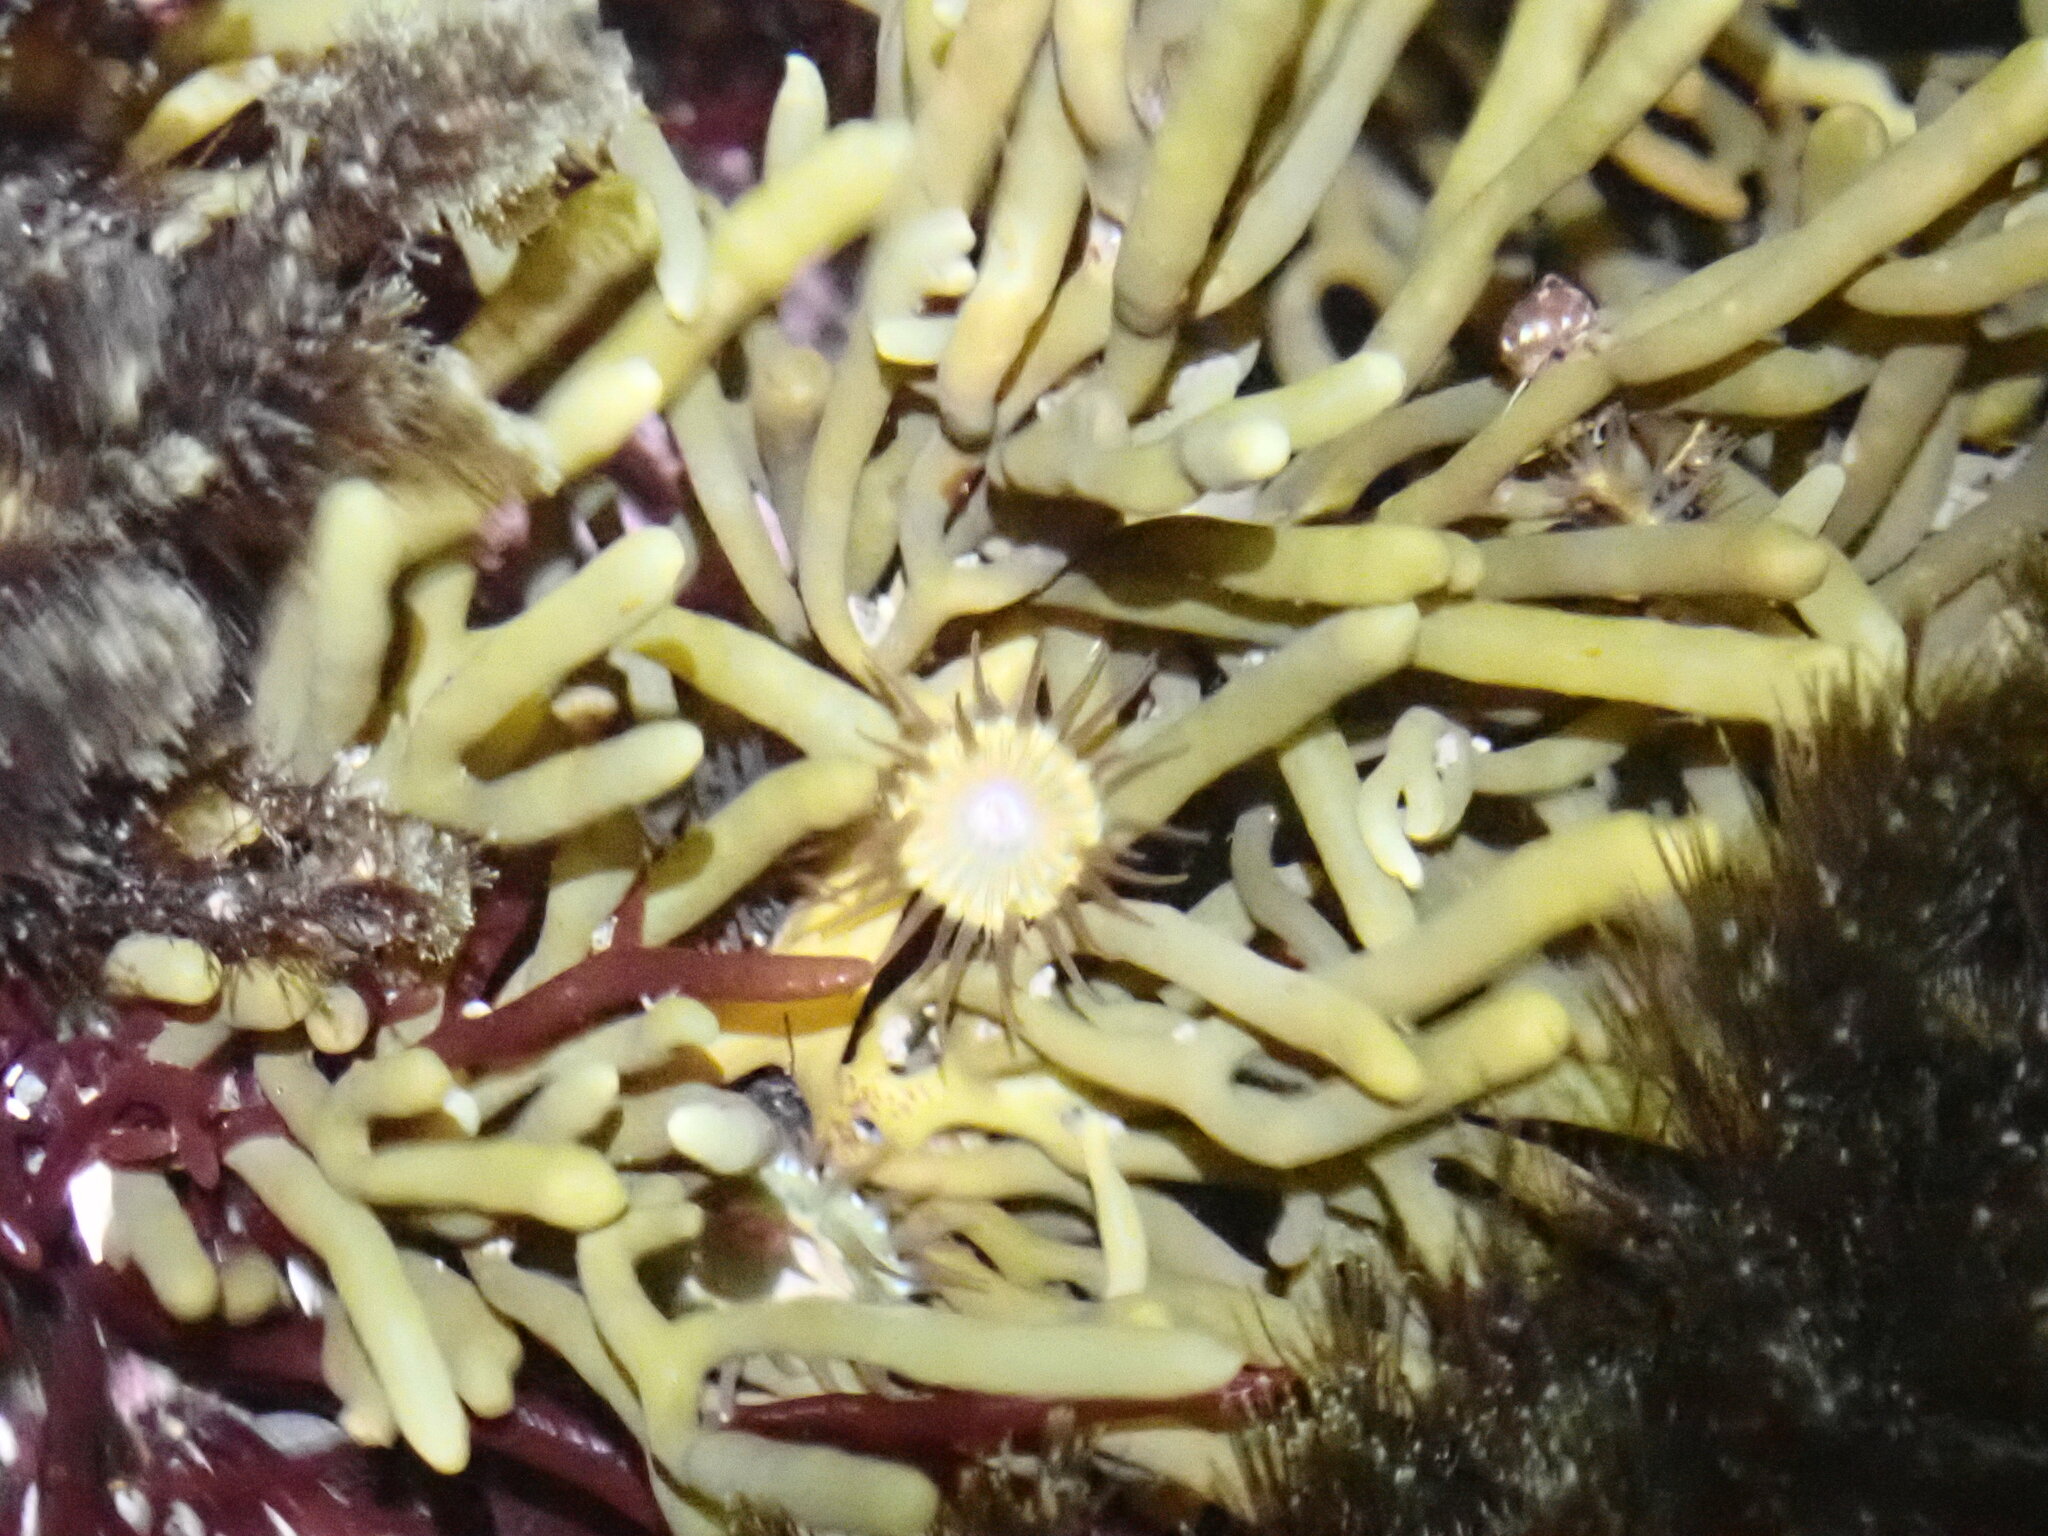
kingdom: Animalia
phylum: Cnidaria
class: Anthozoa
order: Actiniaria
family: Hormathiidae
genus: Handactis
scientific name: Handactis nutrix
